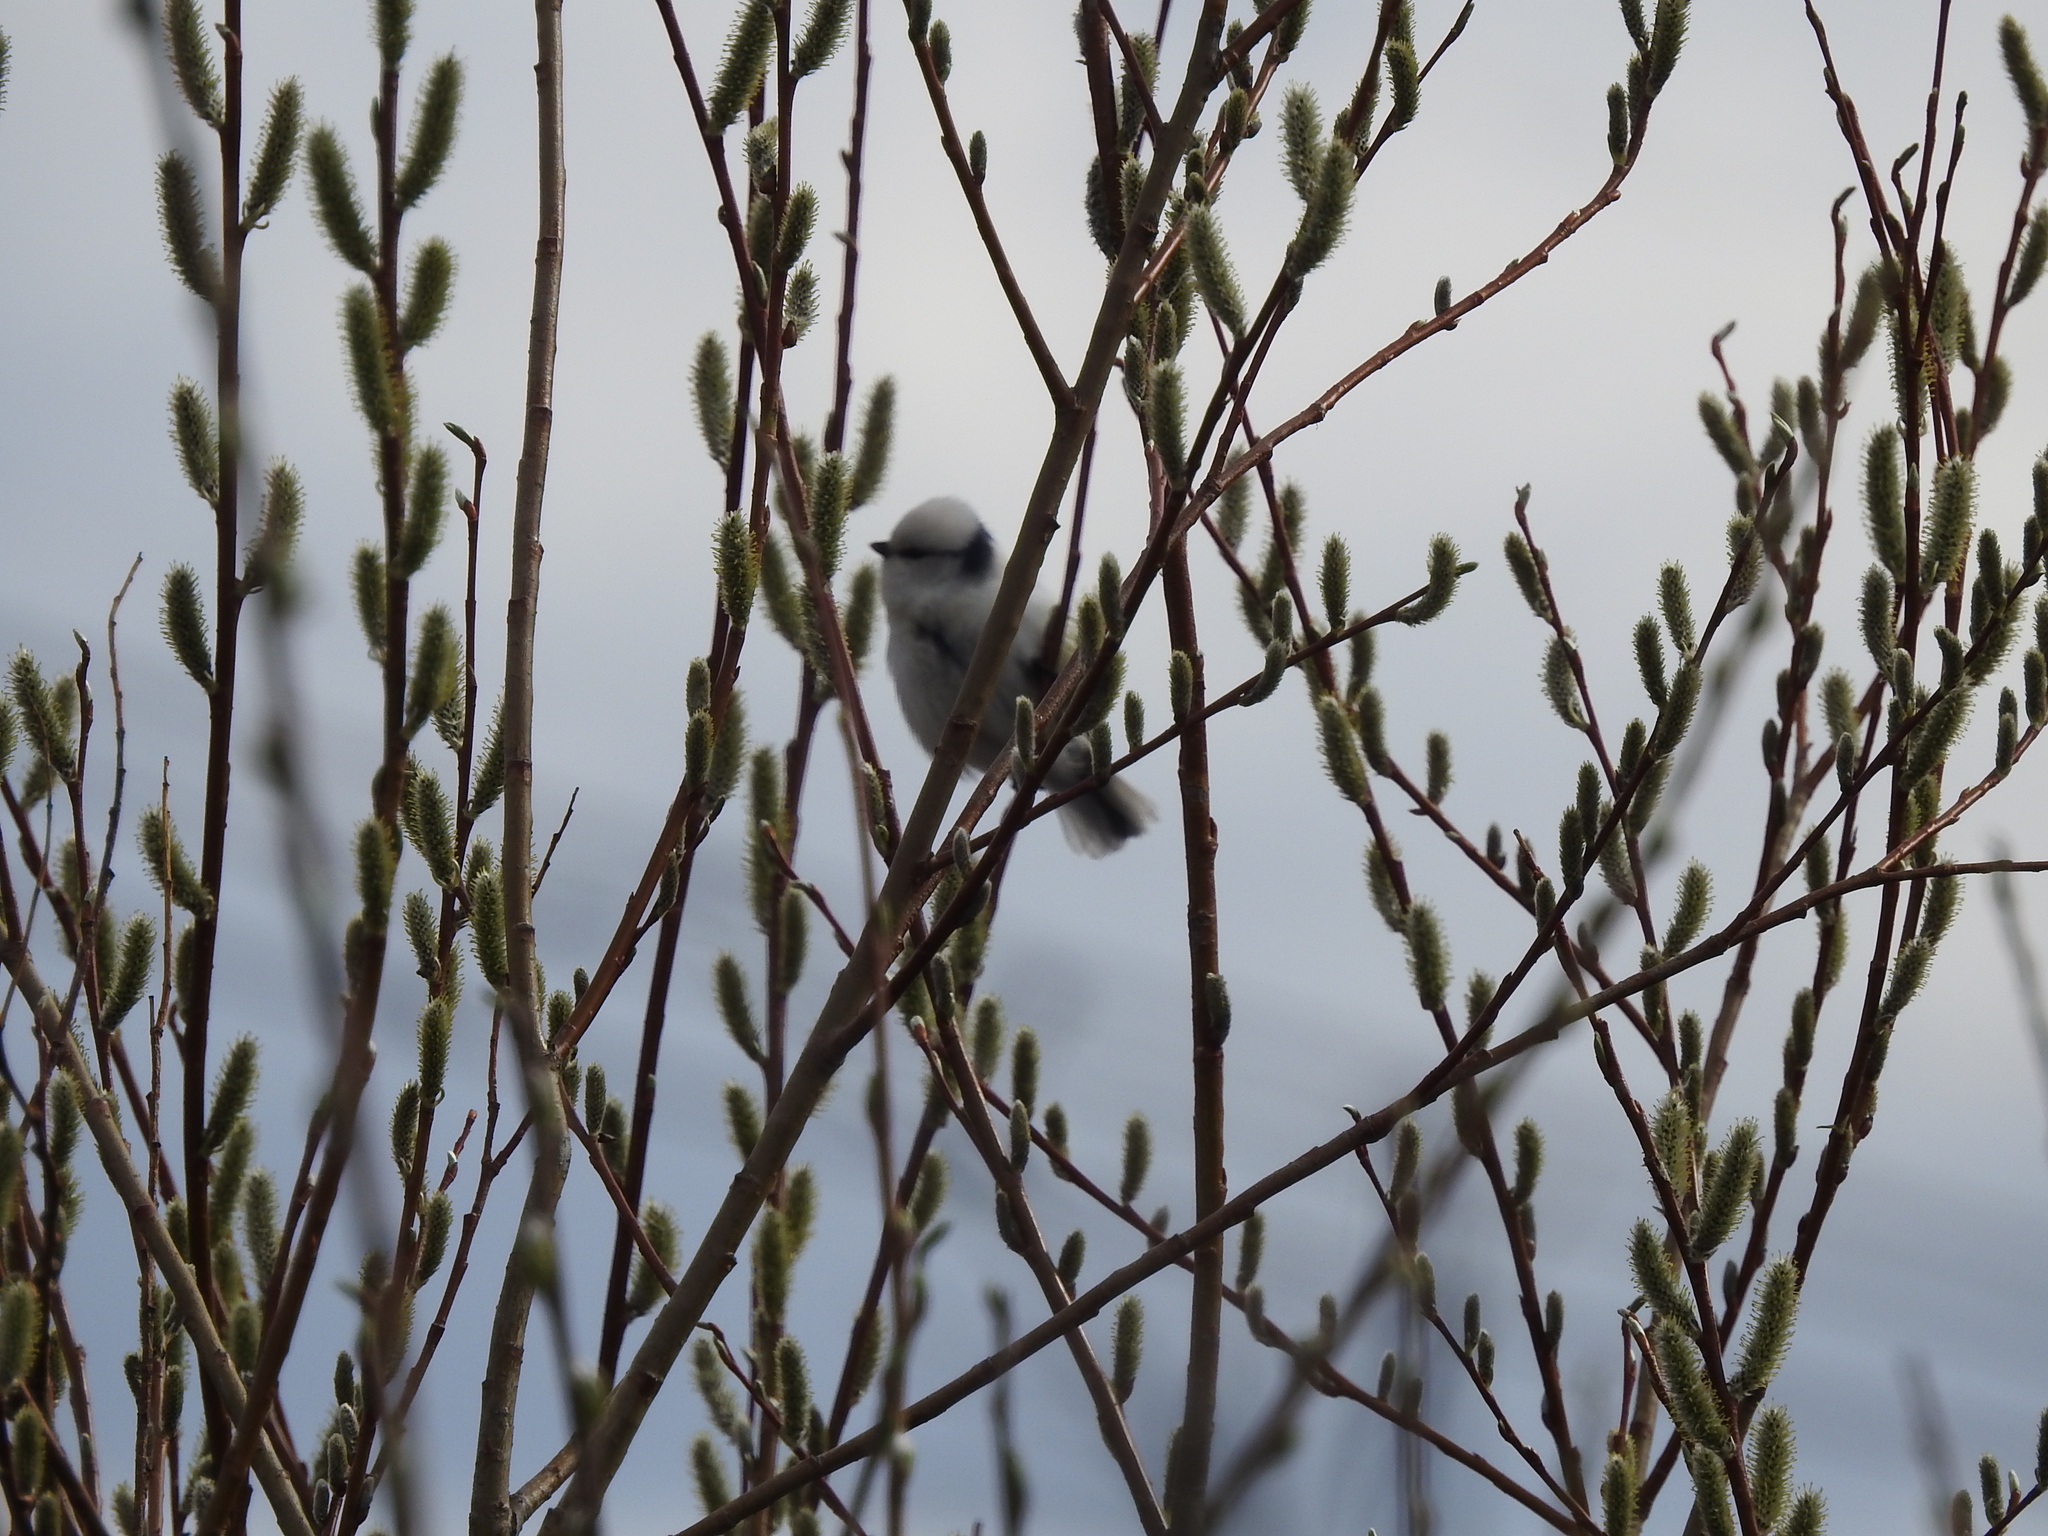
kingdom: Animalia
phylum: Chordata
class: Aves
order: Passeriformes
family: Paridae
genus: Cyanistes
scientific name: Cyanistes cyanus
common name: Azure tit
